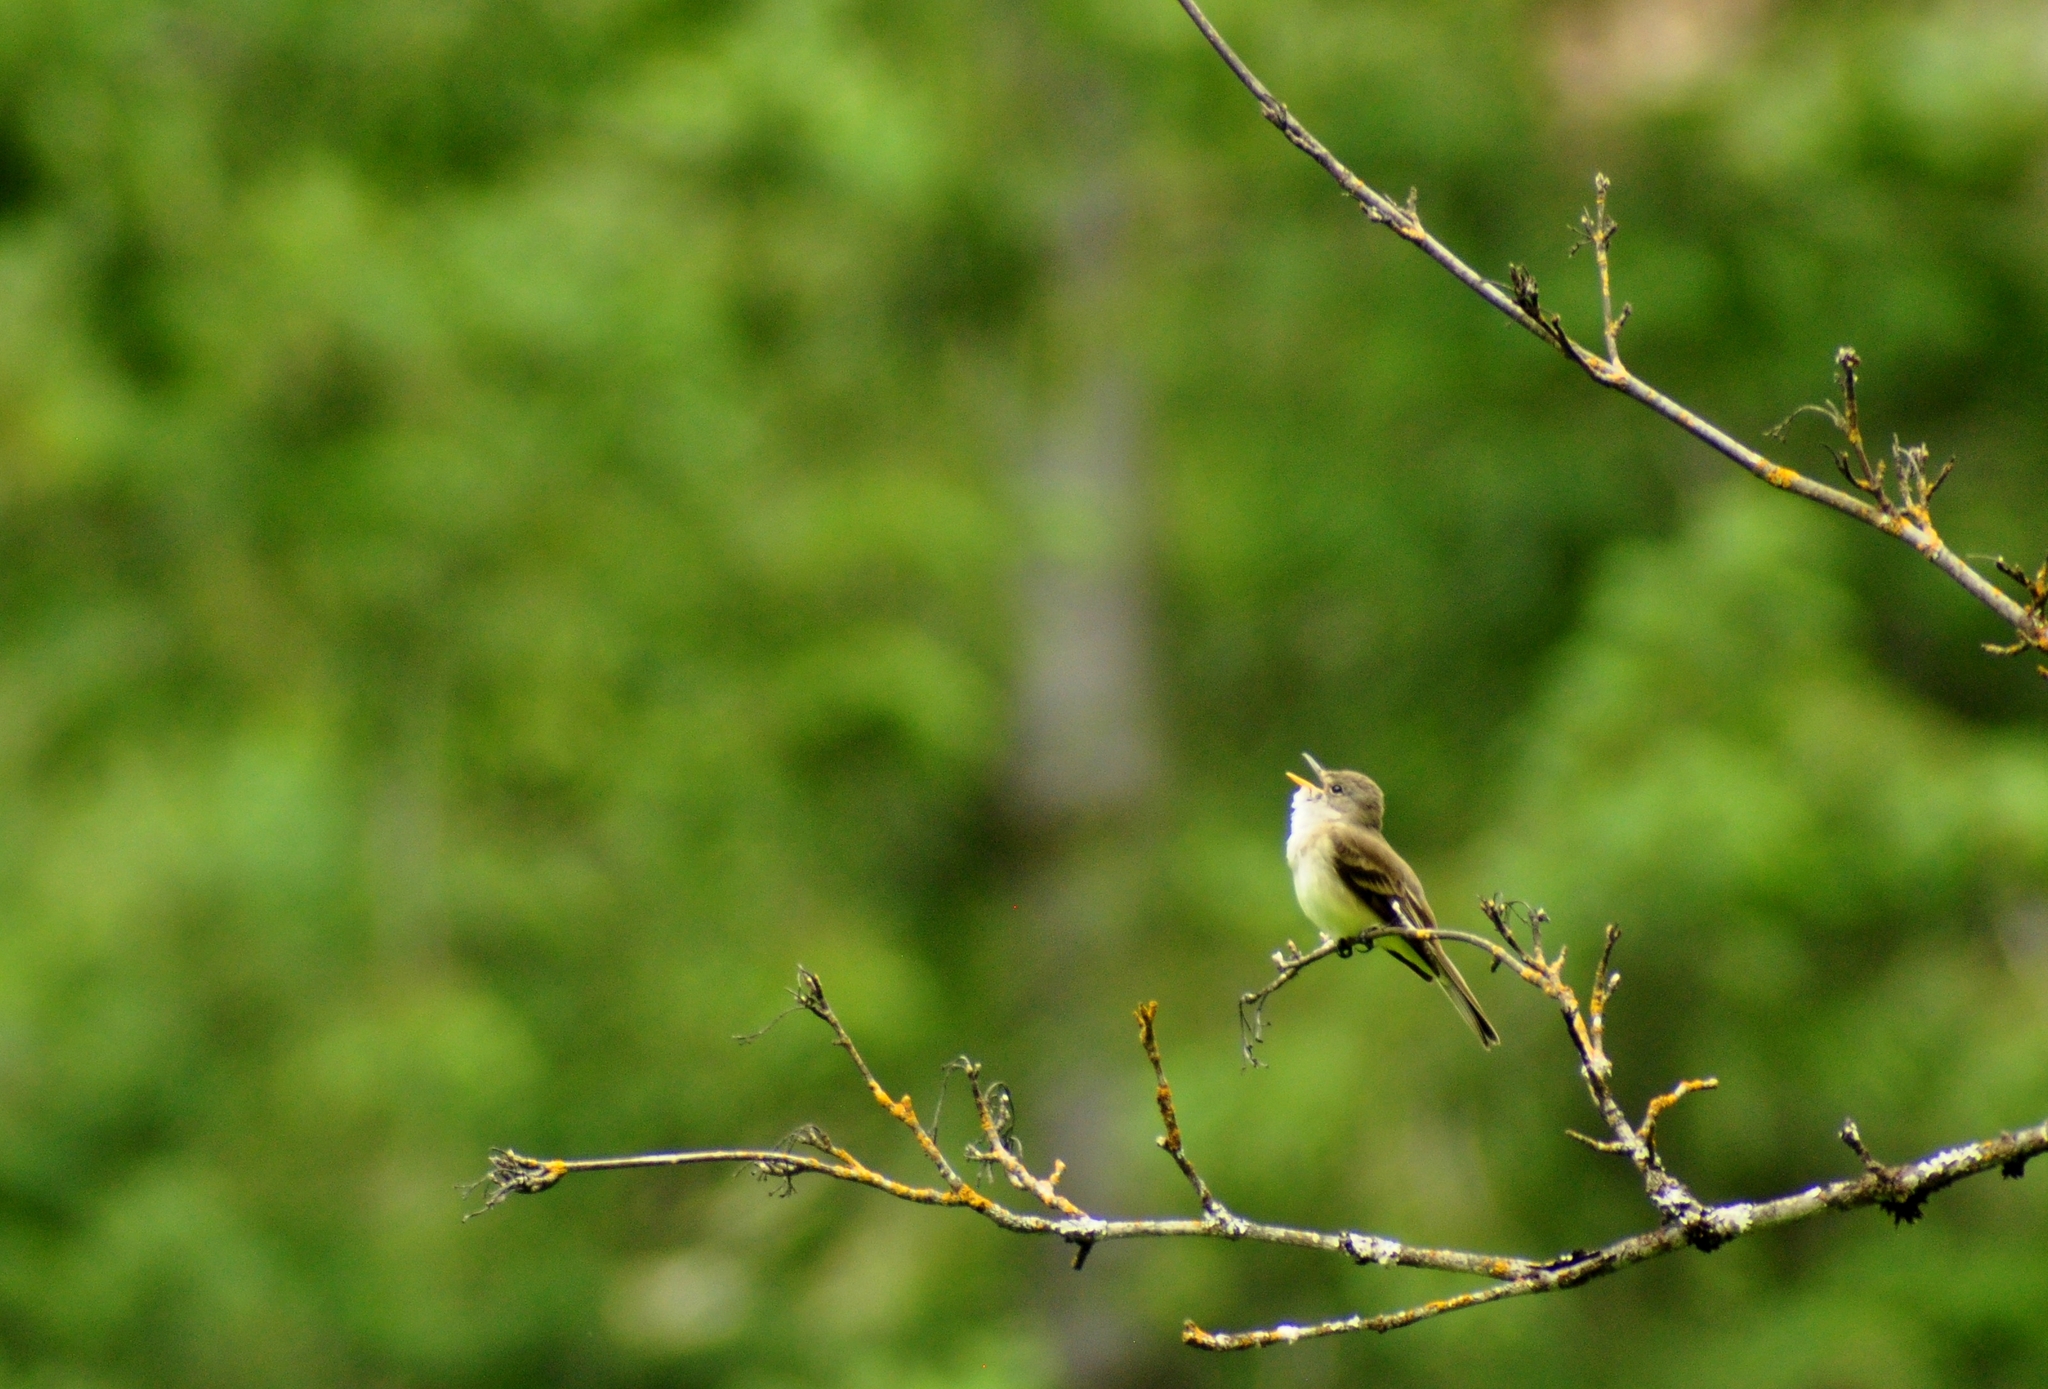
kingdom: Animalia
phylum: Chordata
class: Aves
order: Passeriformes
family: Tyrannidae
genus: Empidonax
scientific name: Empidonax traillii
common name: Willow flycatcher
